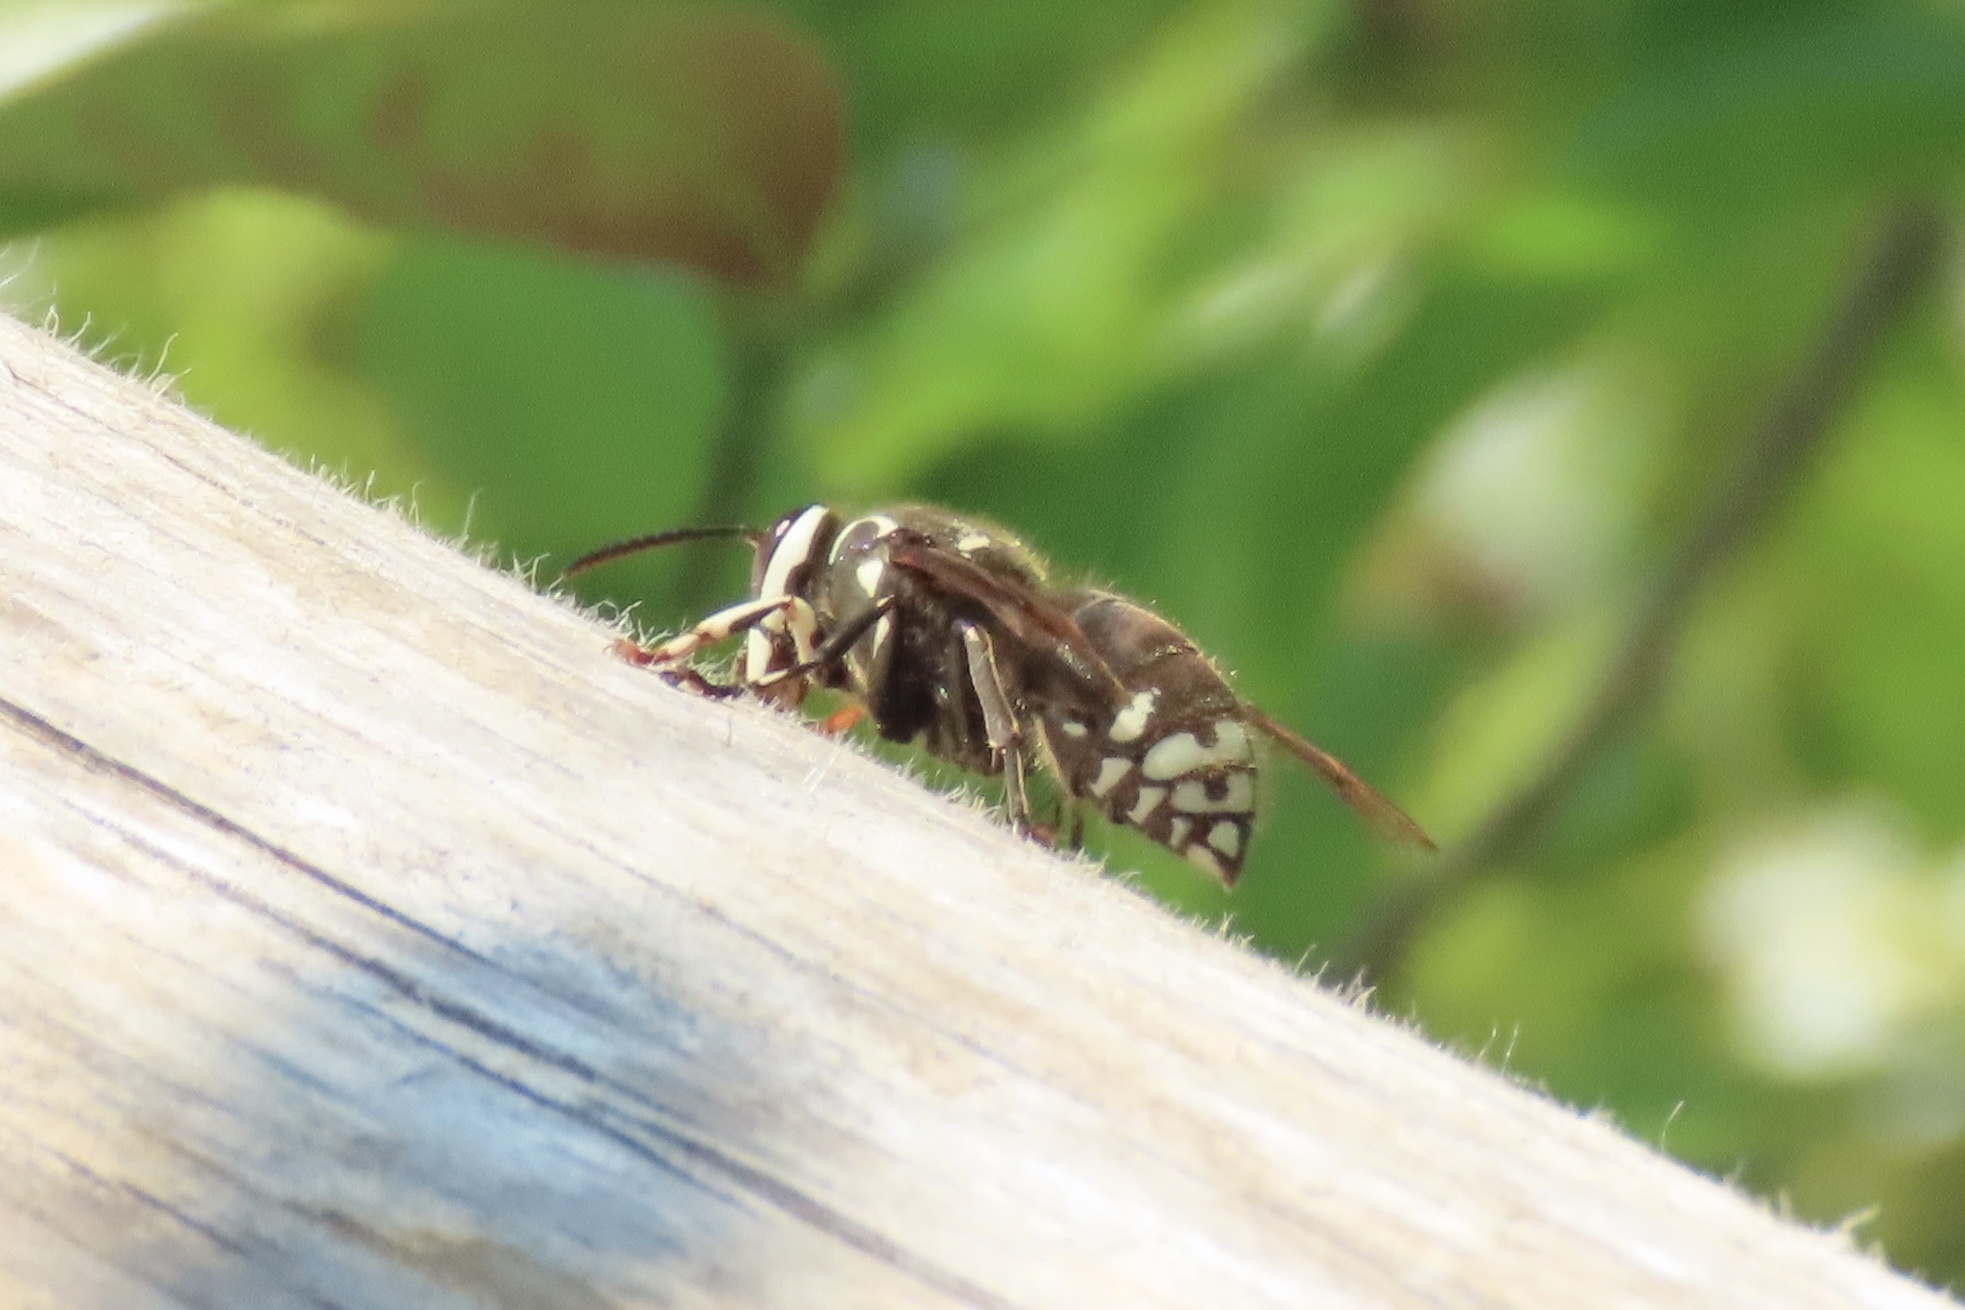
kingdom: Animalia
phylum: Arthropoda
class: Insecta
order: Hymenoptera
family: Vespidae
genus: Dolichovespula
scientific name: Dolichovespula maculata
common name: Bald-faced hornet
